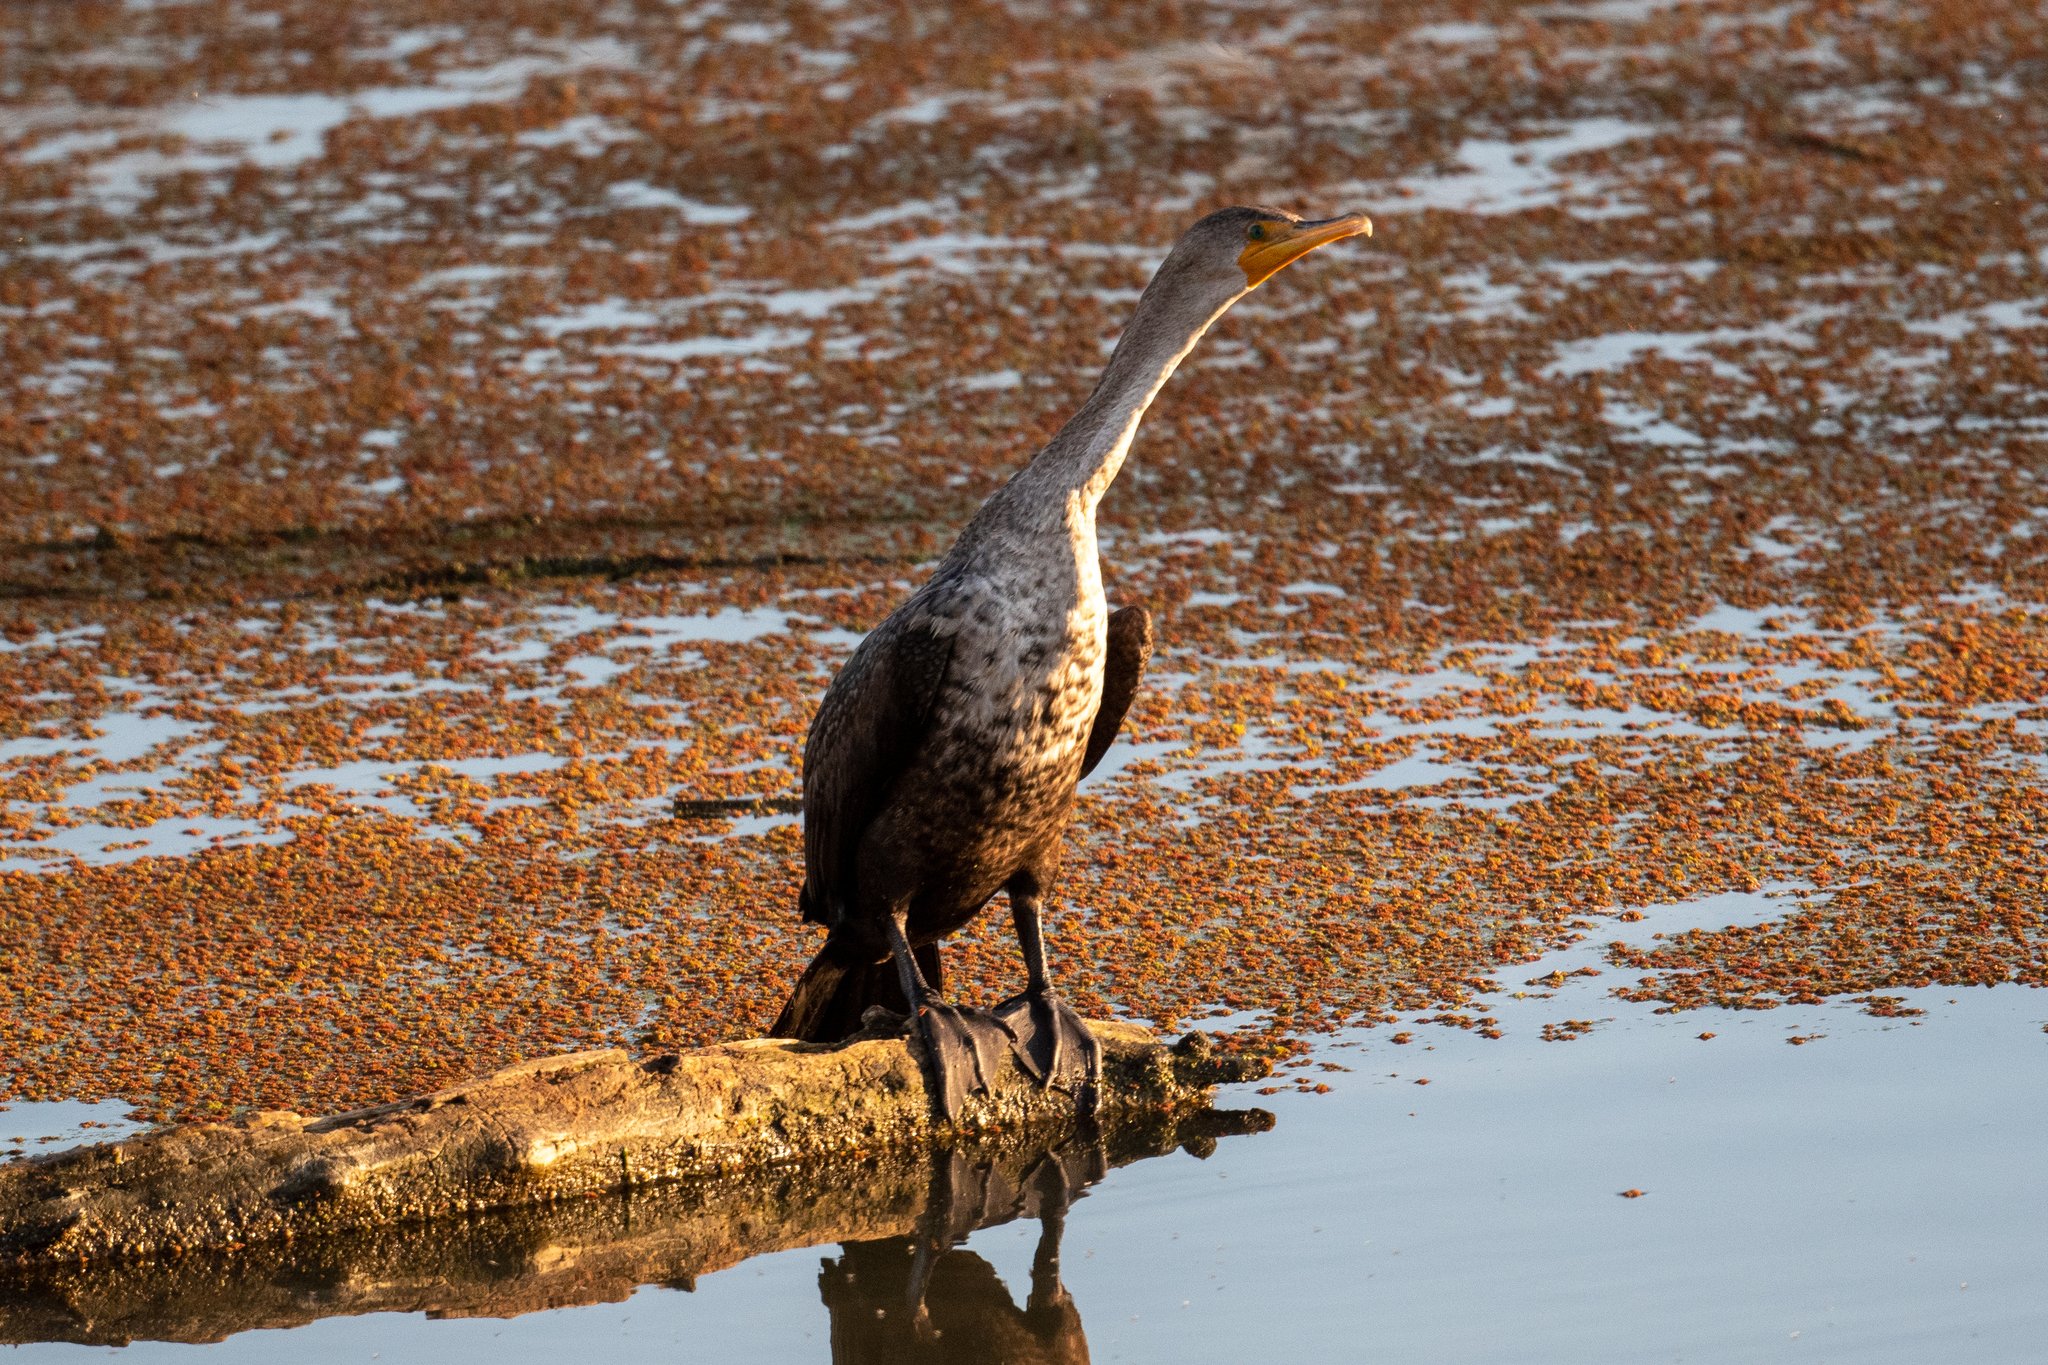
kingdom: Animalia
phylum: Chordata
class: Aves
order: Suliformes
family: Phalacrocoracidae
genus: Phalacrocorax
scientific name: Phalacrocorax auritus
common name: Double-crested cormorant
